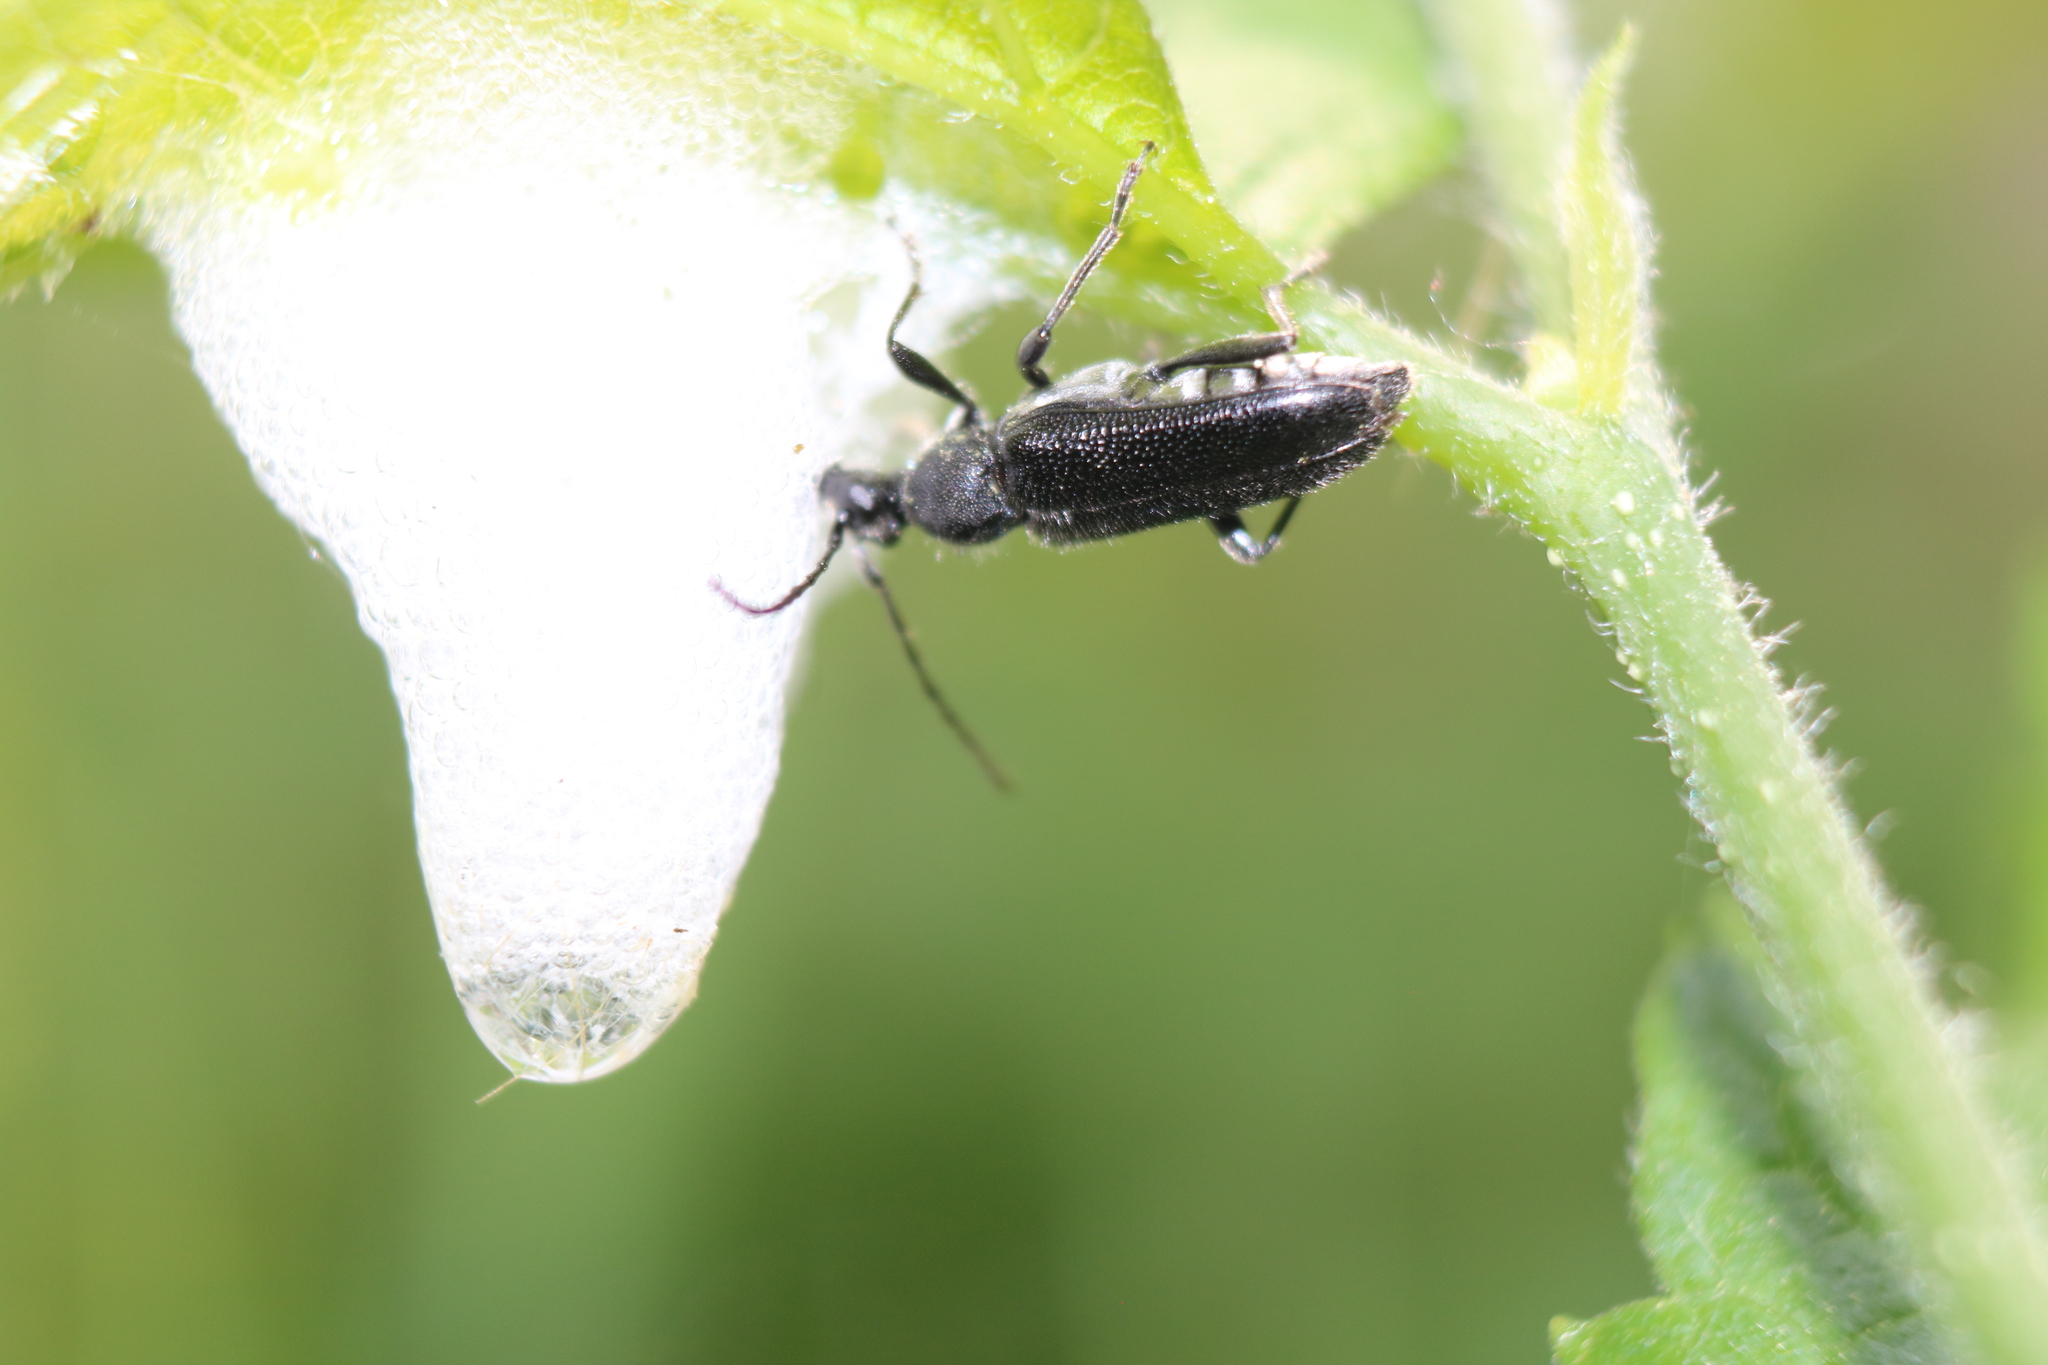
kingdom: Animalia
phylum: Arthropoda
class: Insecta
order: Coleoptera
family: Cerambycidae
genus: Anoplodera
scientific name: Anoplodera pubera
